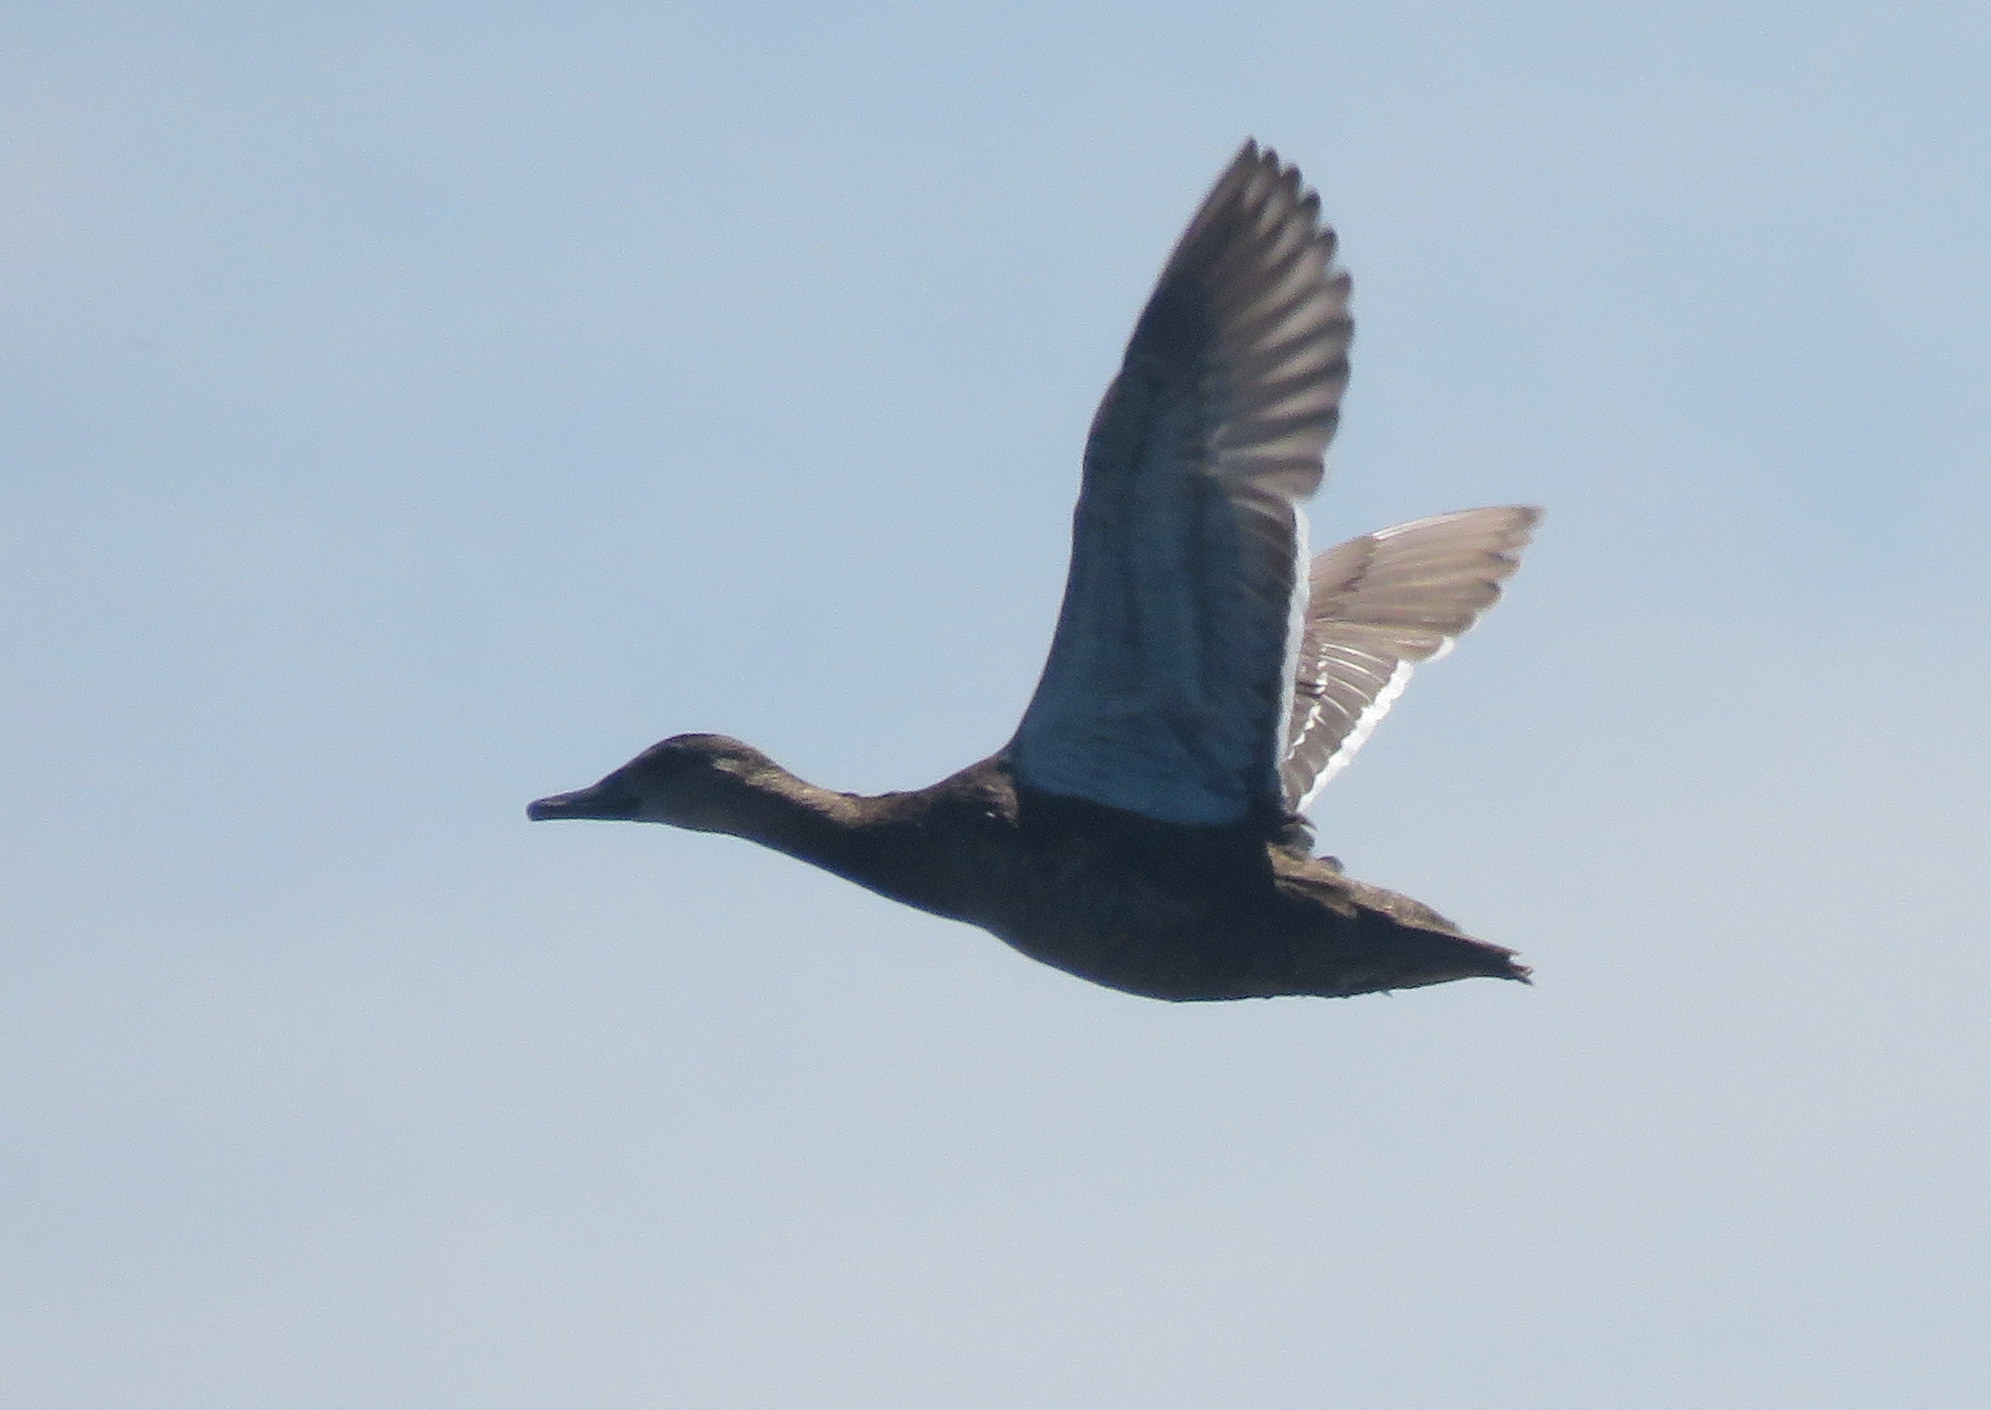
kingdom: Animalia
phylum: Chordata
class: Aves
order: Anseriformes
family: Anatidae
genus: Heteronetta
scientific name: Heteronetta atricapilla
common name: Black-headed duck
